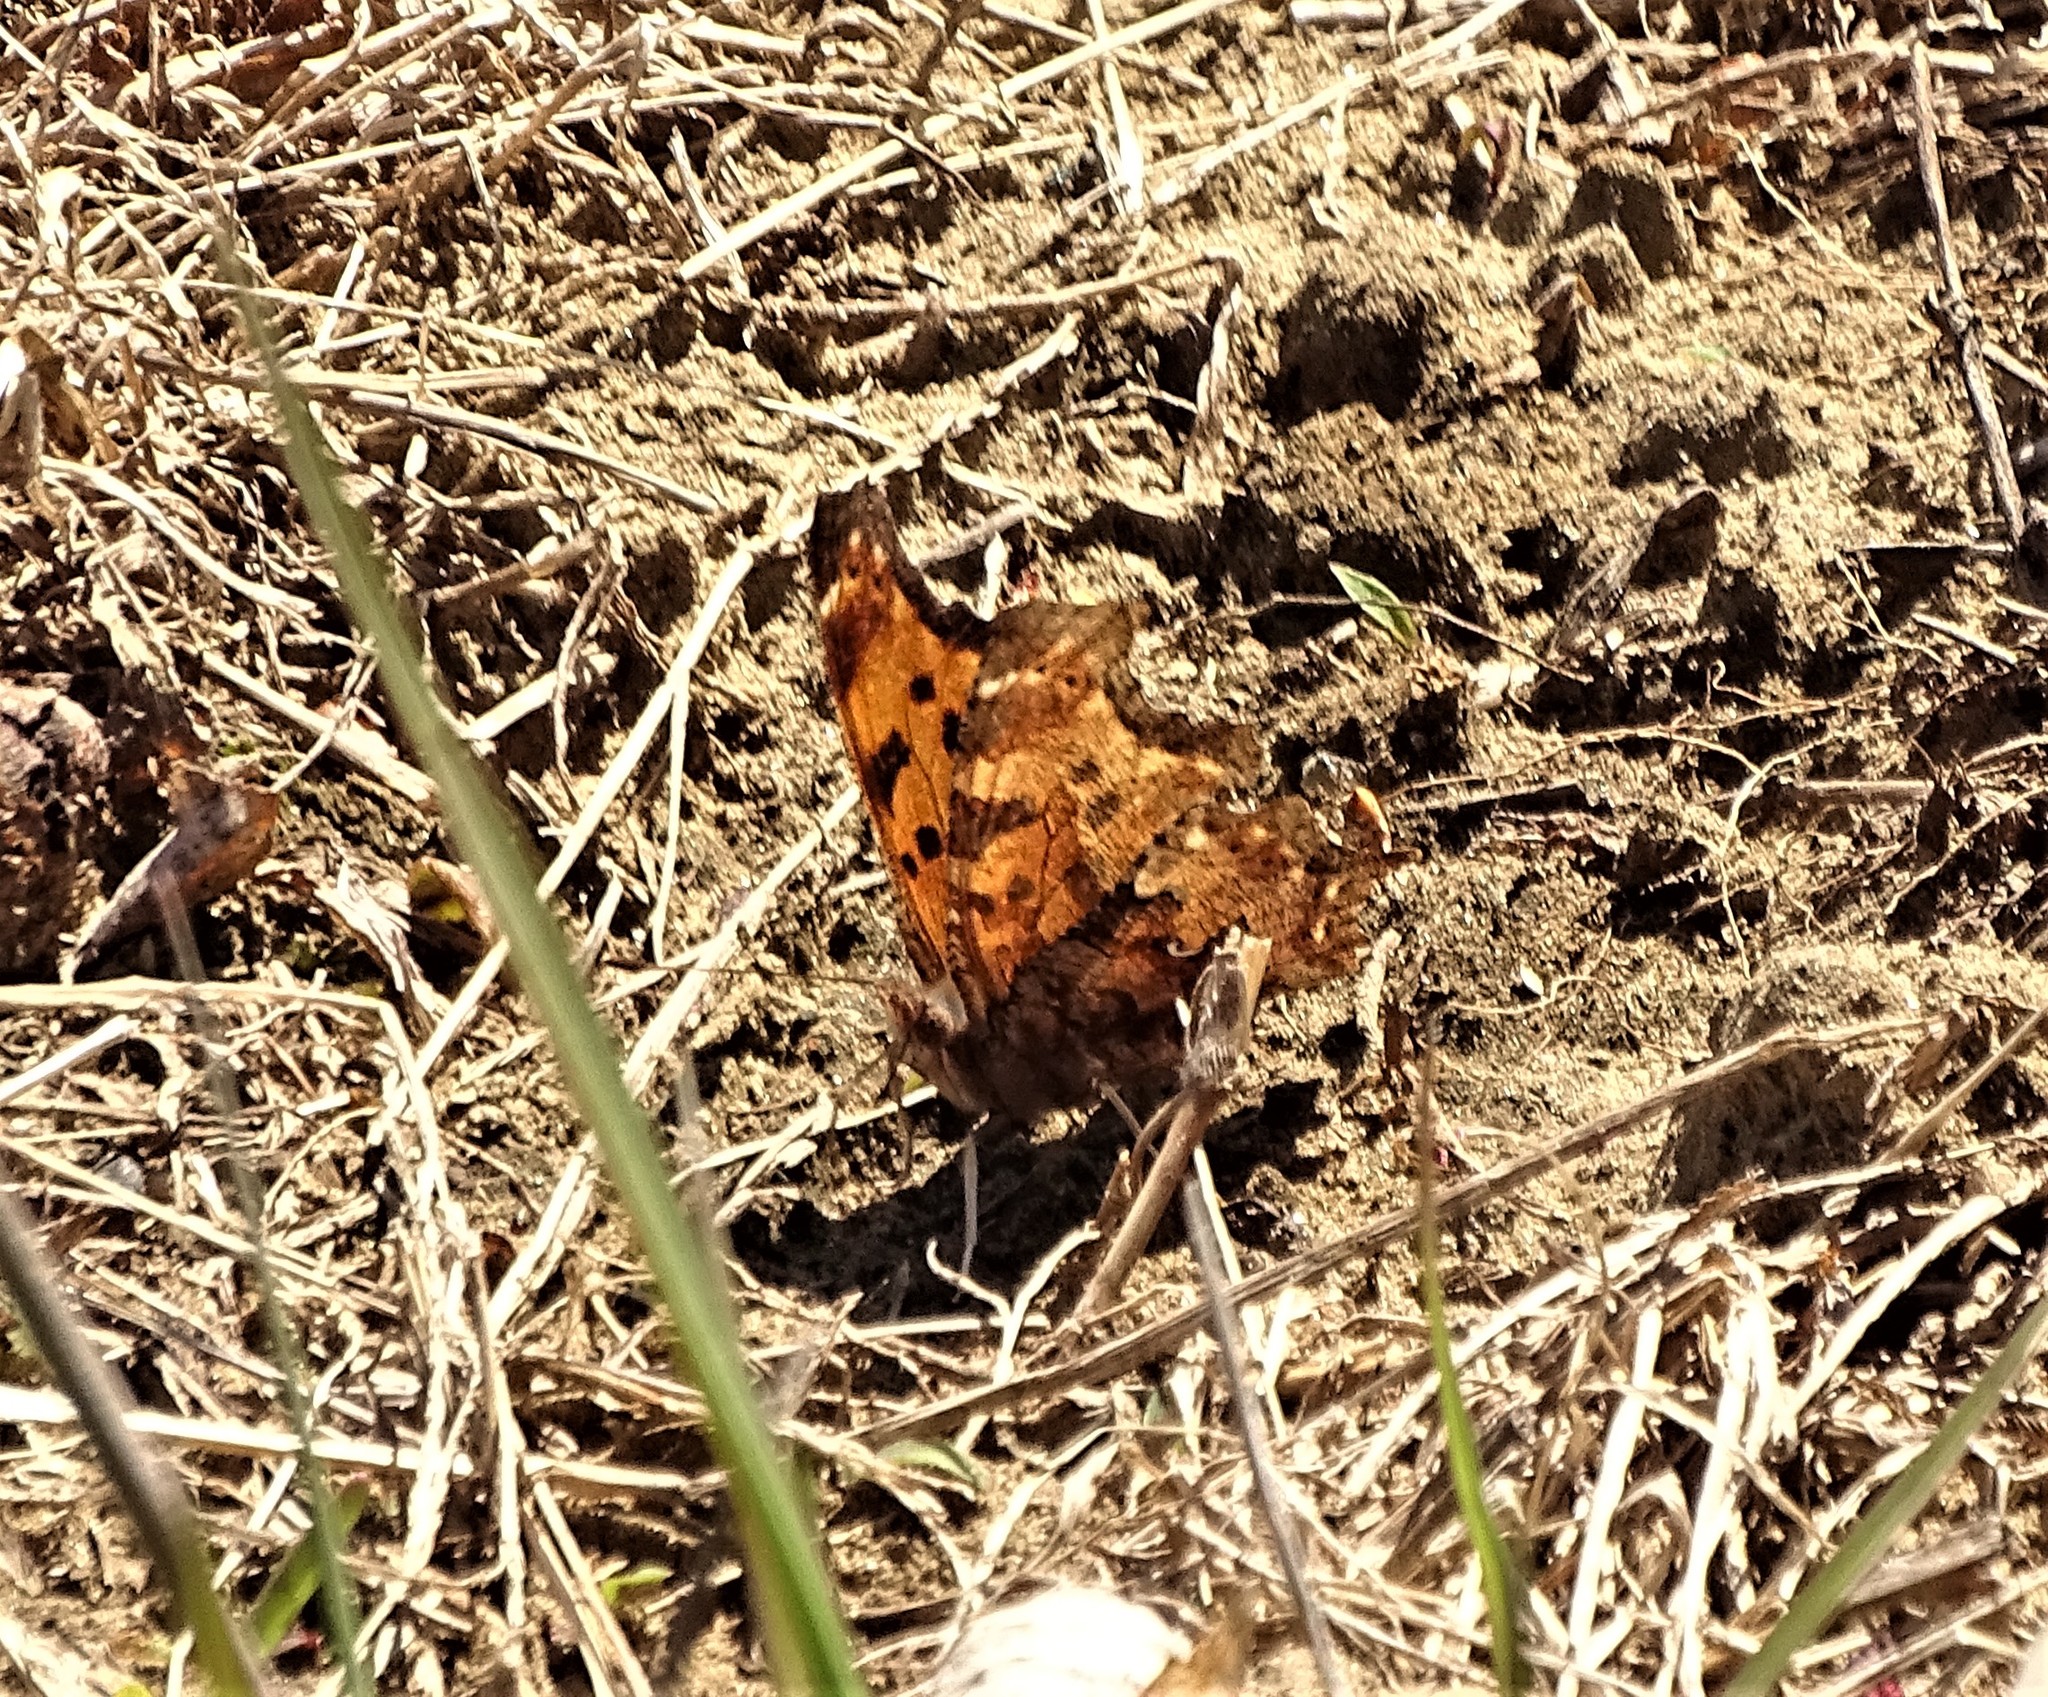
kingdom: Animalia
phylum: Arthropoda
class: Insecta
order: Lepidoptera
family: Nymphalidae
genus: Polygonia
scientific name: Polygonia comma
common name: Eastern comma
